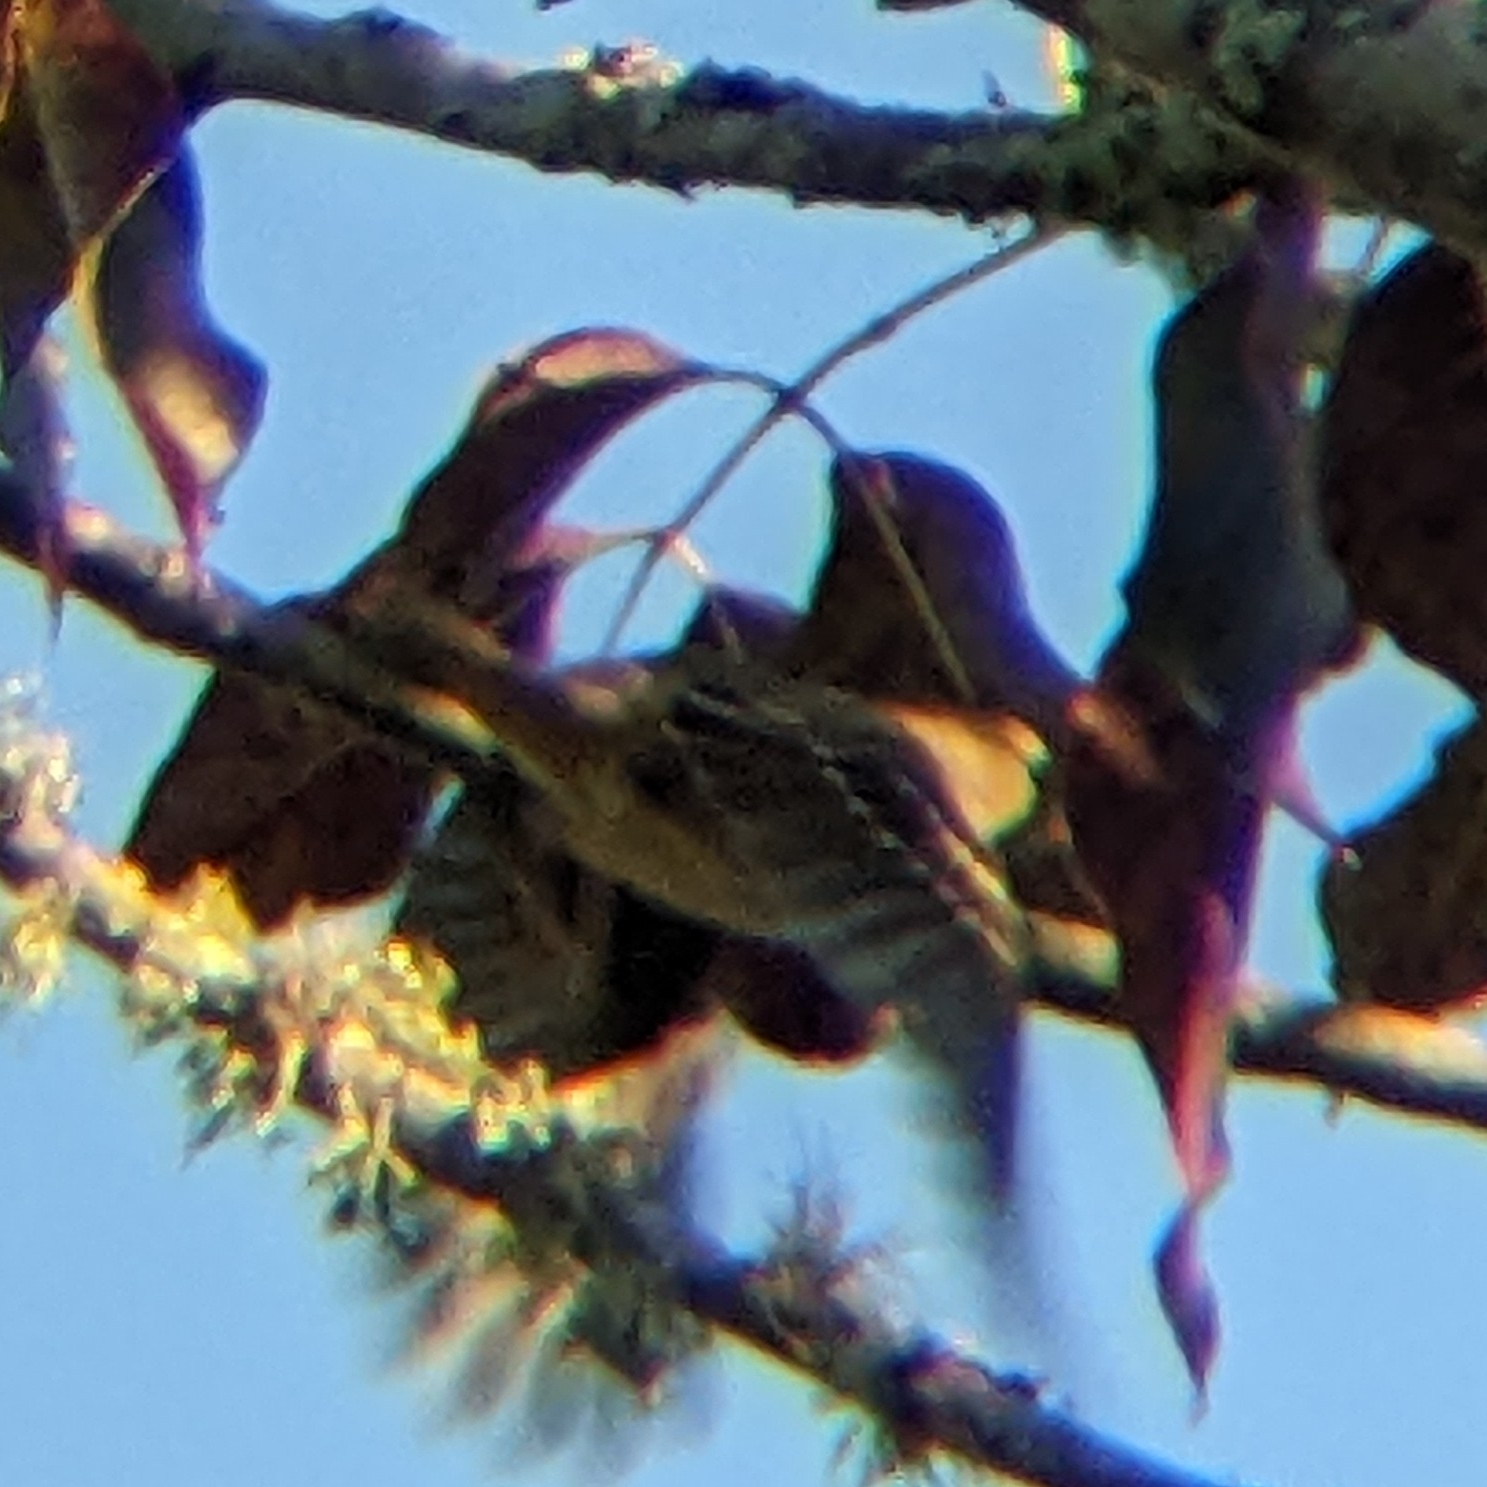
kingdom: Animalia
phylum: Chordata
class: Aves
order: Passeriformes
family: Passerellidae
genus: Zonotrichia
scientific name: Zonotrichia leucophrys
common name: White-crowned sparrow
